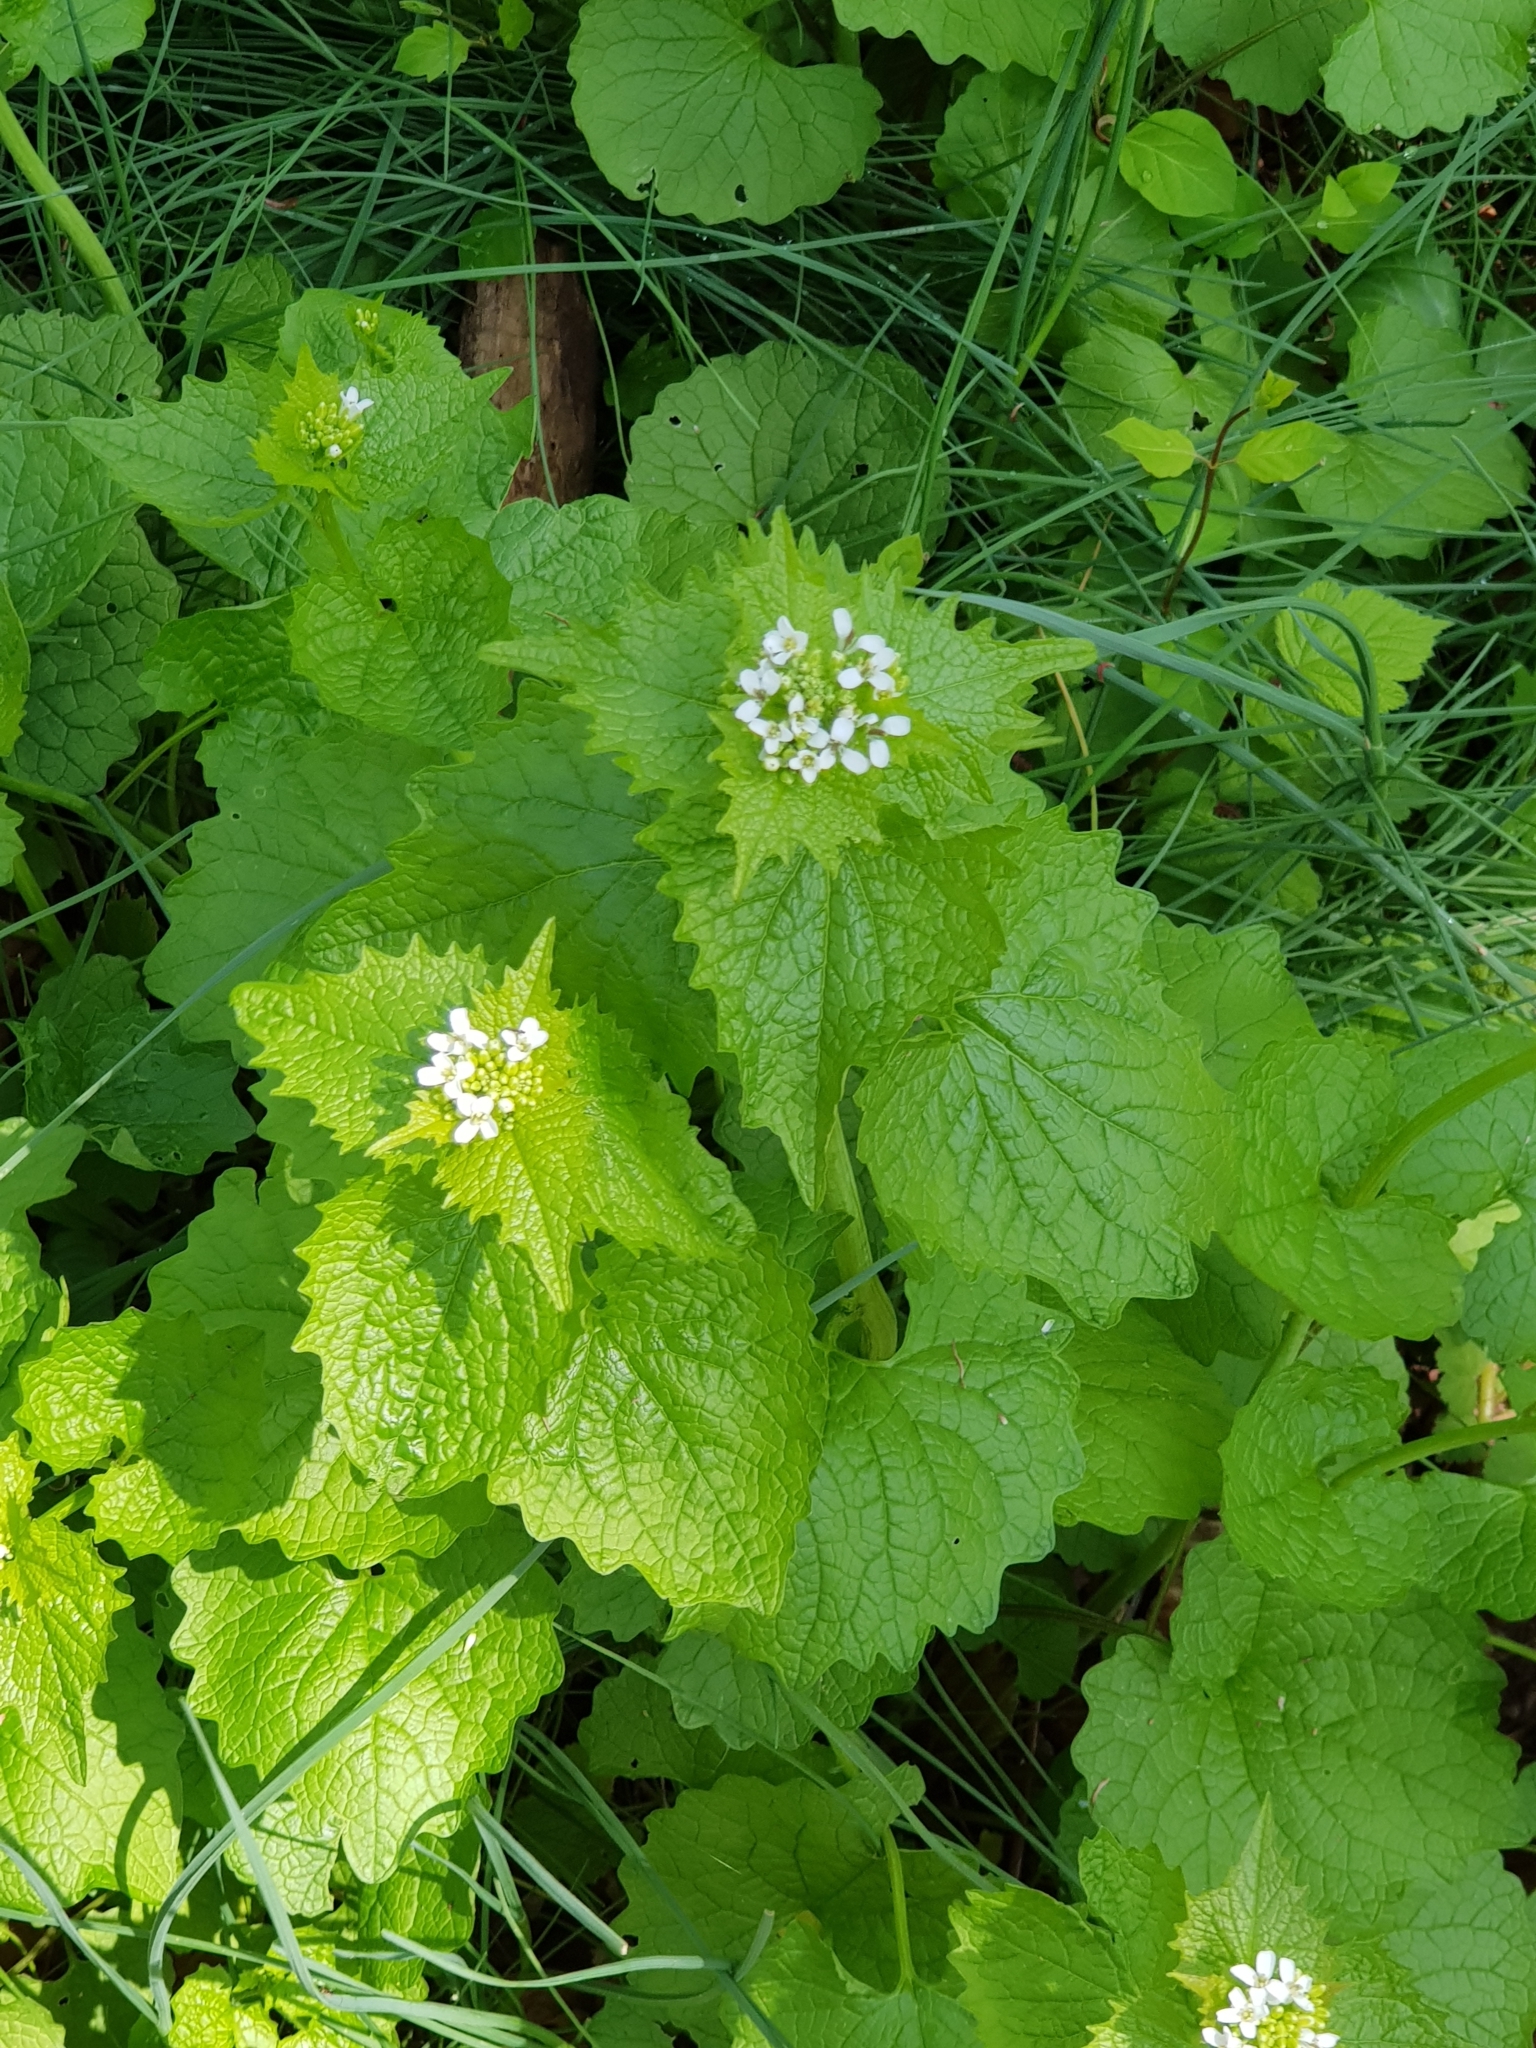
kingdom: Plantae
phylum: Tracheophyta
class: Magnoliopsida
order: Brassicales
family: Brassicaceae
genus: Alliaria
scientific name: Alliaria petiolata
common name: Garlic mustard
